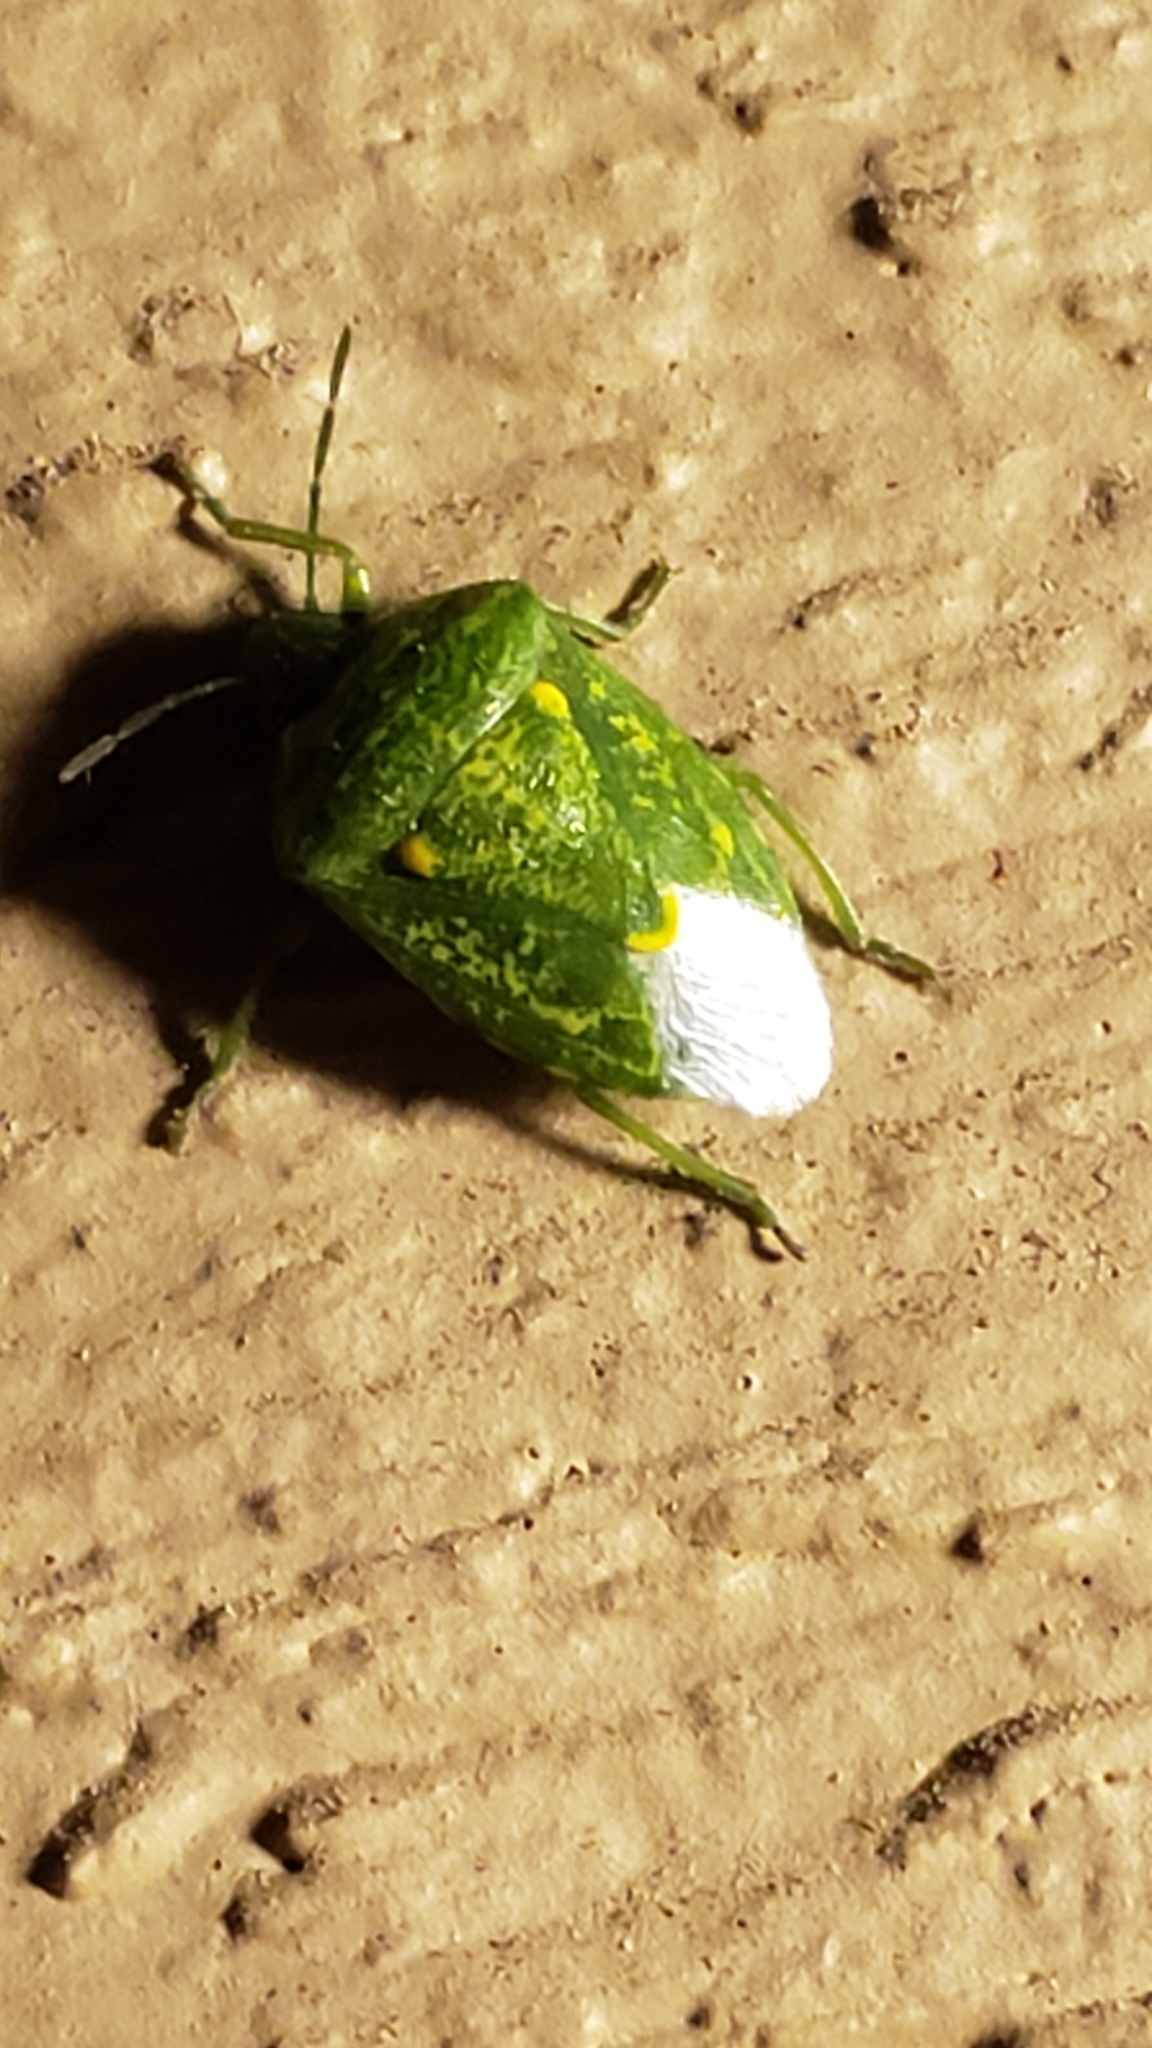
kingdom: Animalia
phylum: Arthropoda
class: Insecta
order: Hemiptera
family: Pentatomidae
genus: Banasa
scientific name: Banasa euchlora
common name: Cedar berry bug
